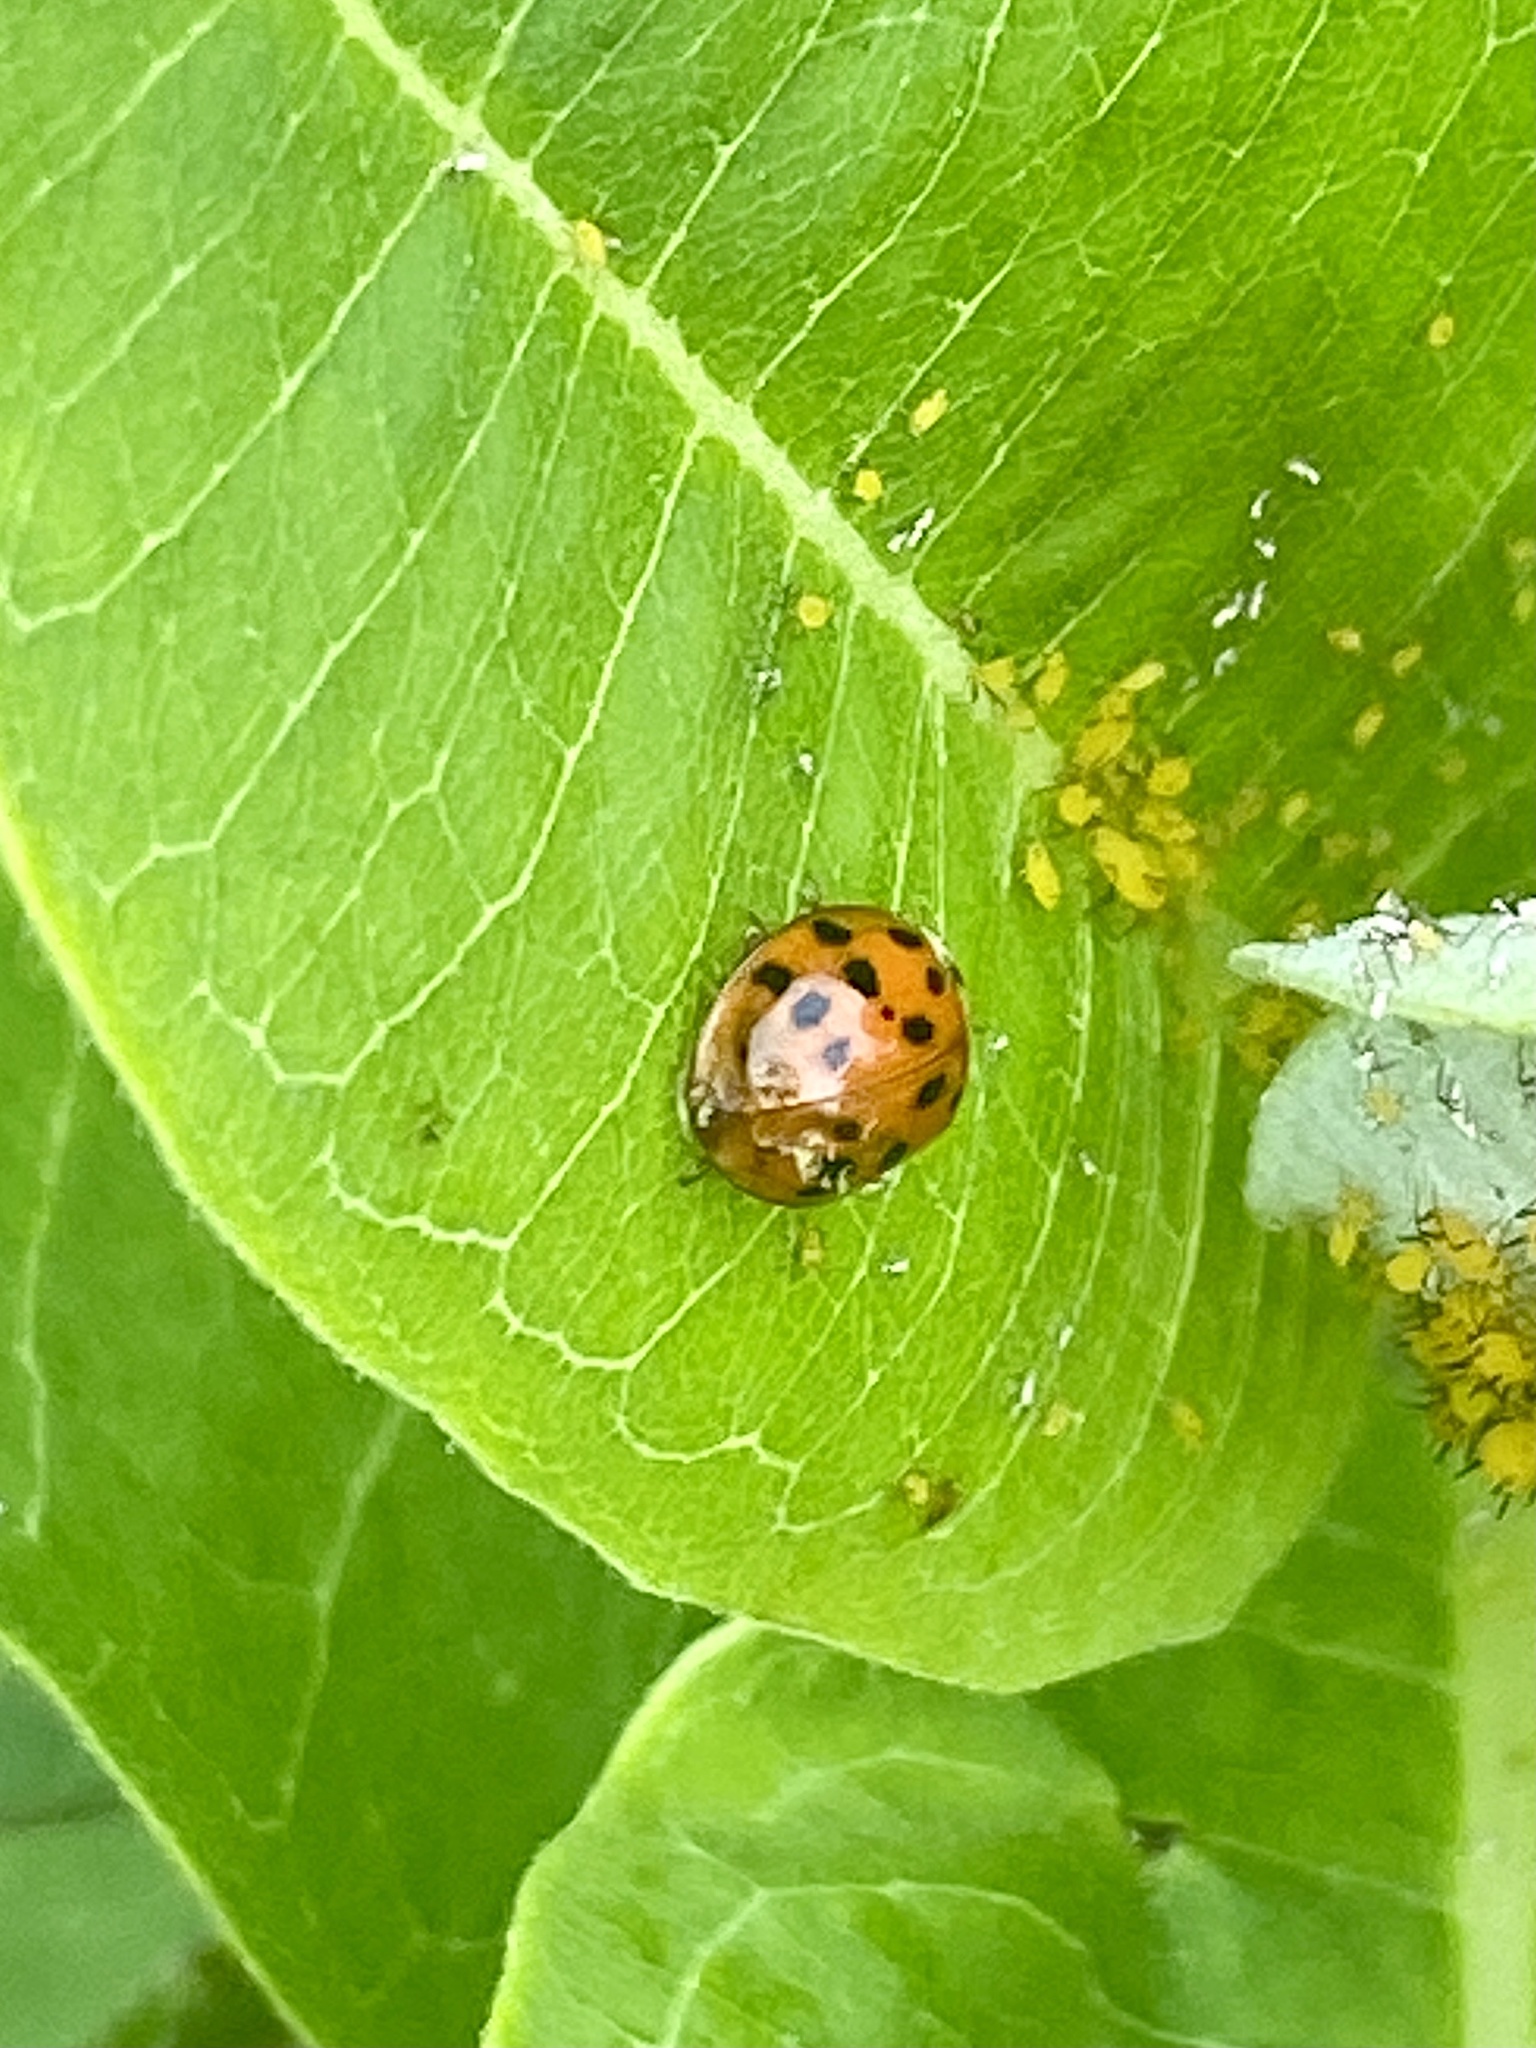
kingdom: Animalia
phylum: Arthropoda
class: Insecta
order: Coleoptera
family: Coccinellidae
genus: Harmonia
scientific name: Harmonia axyridis
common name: Harlequin ladybird
